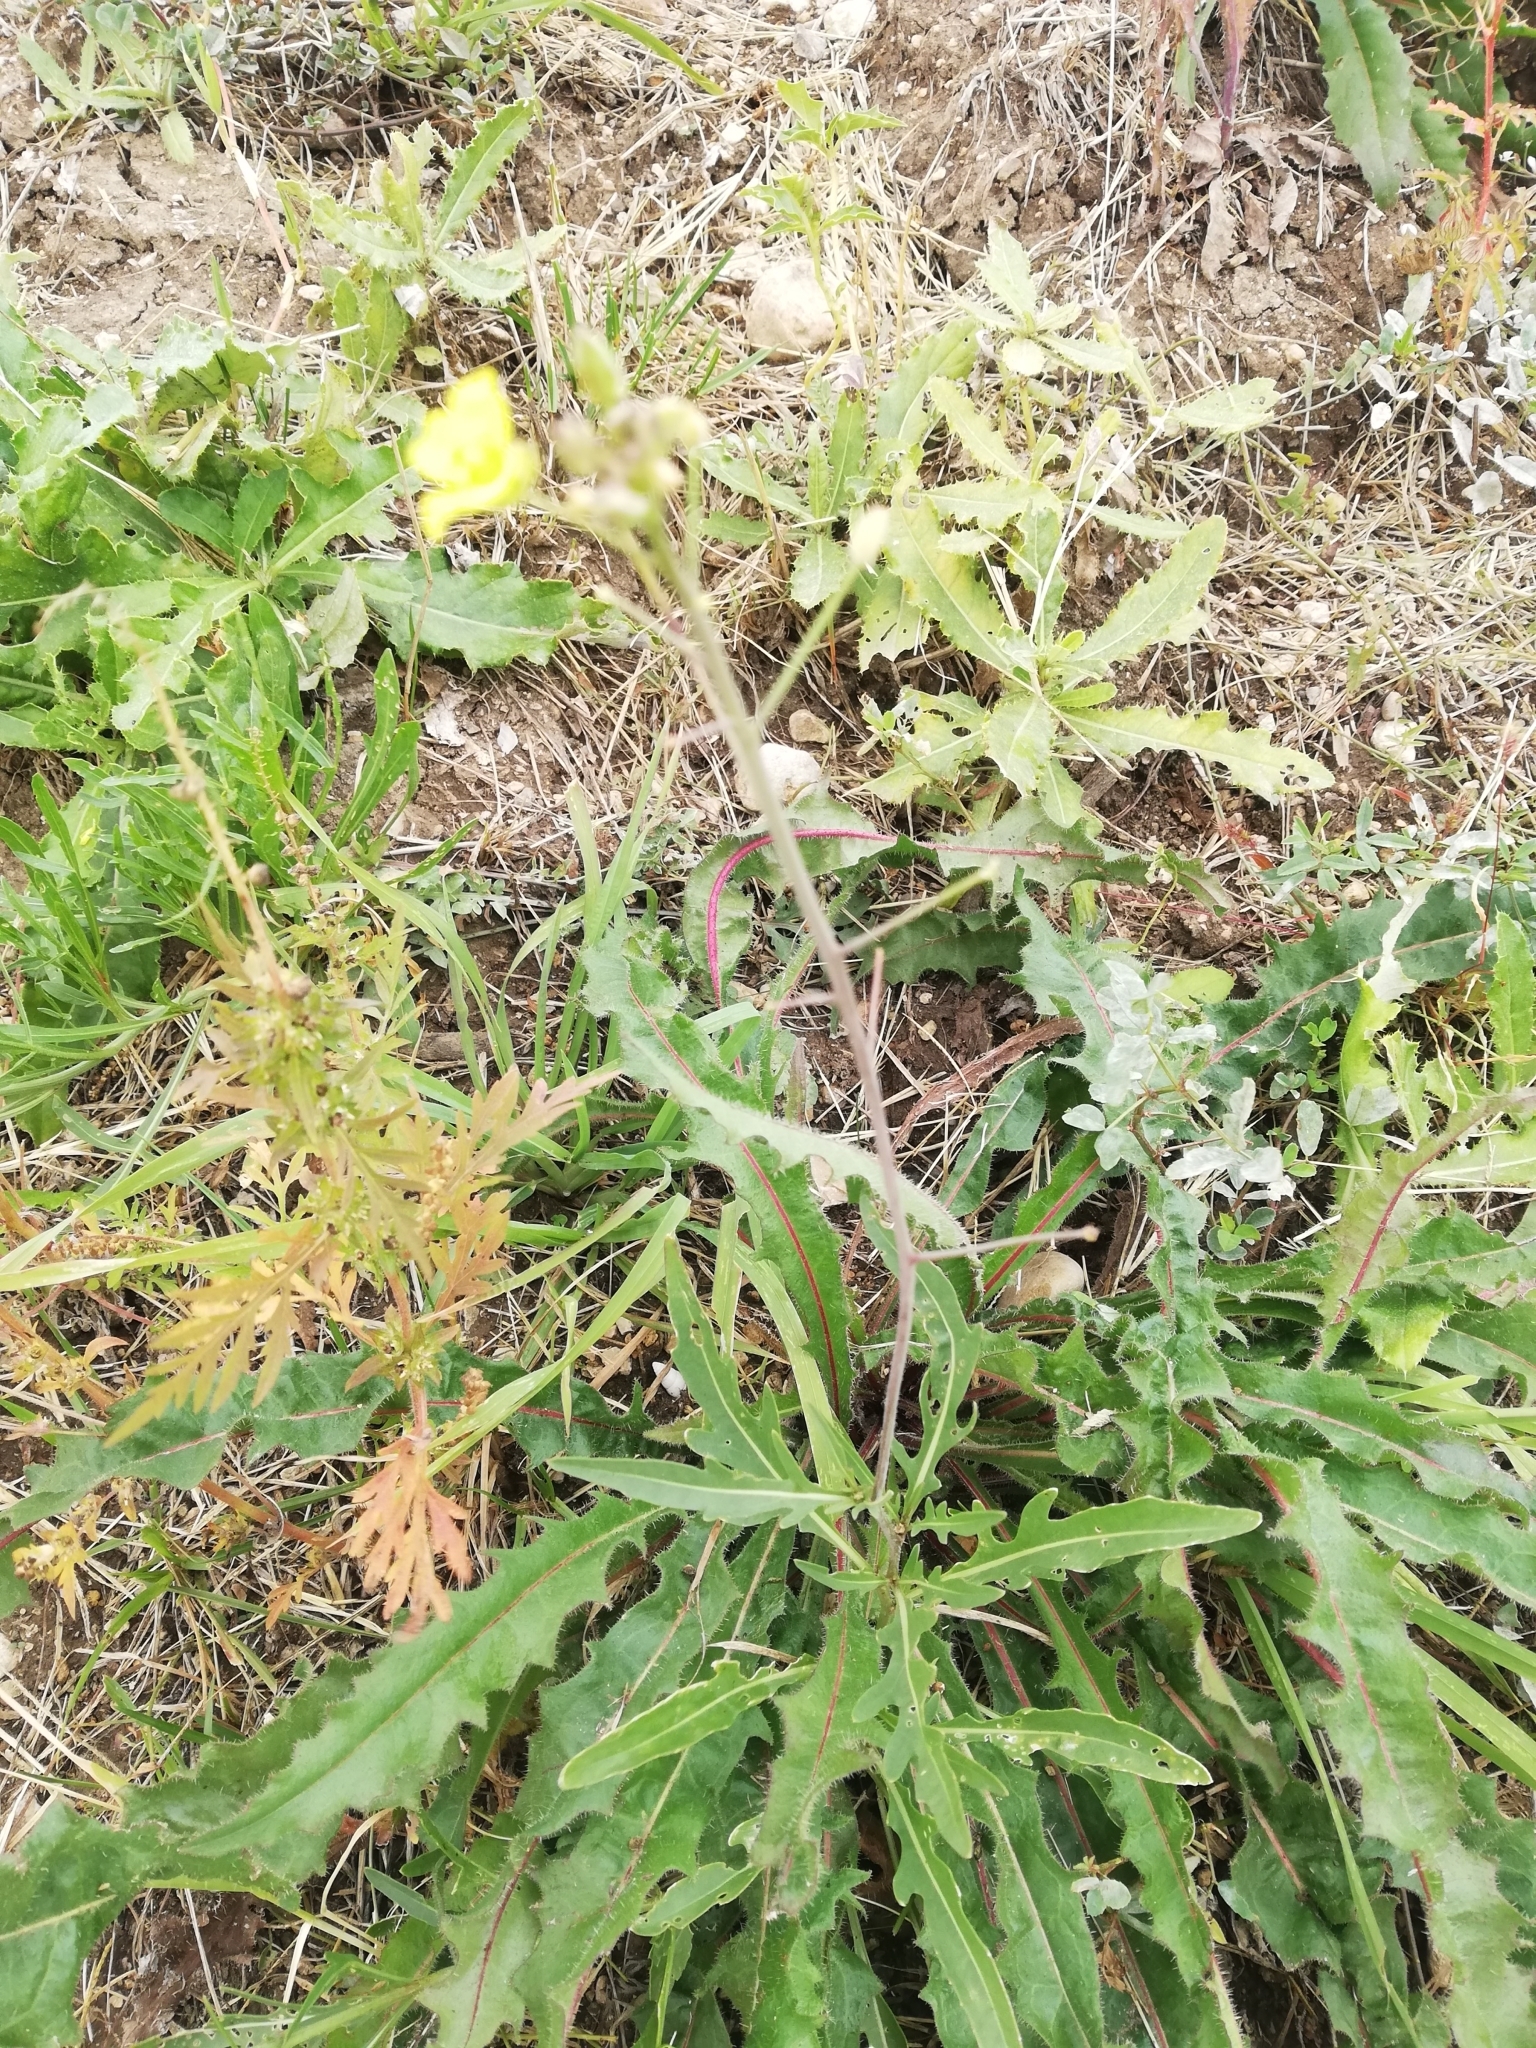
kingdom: Plantae
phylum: Tracheophyta
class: Magnoliopsida
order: Brassicales
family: Brassicaceae
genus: Diplotaxis
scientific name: Diplotaxis tenuifolia
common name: Perennial wall-rocket
